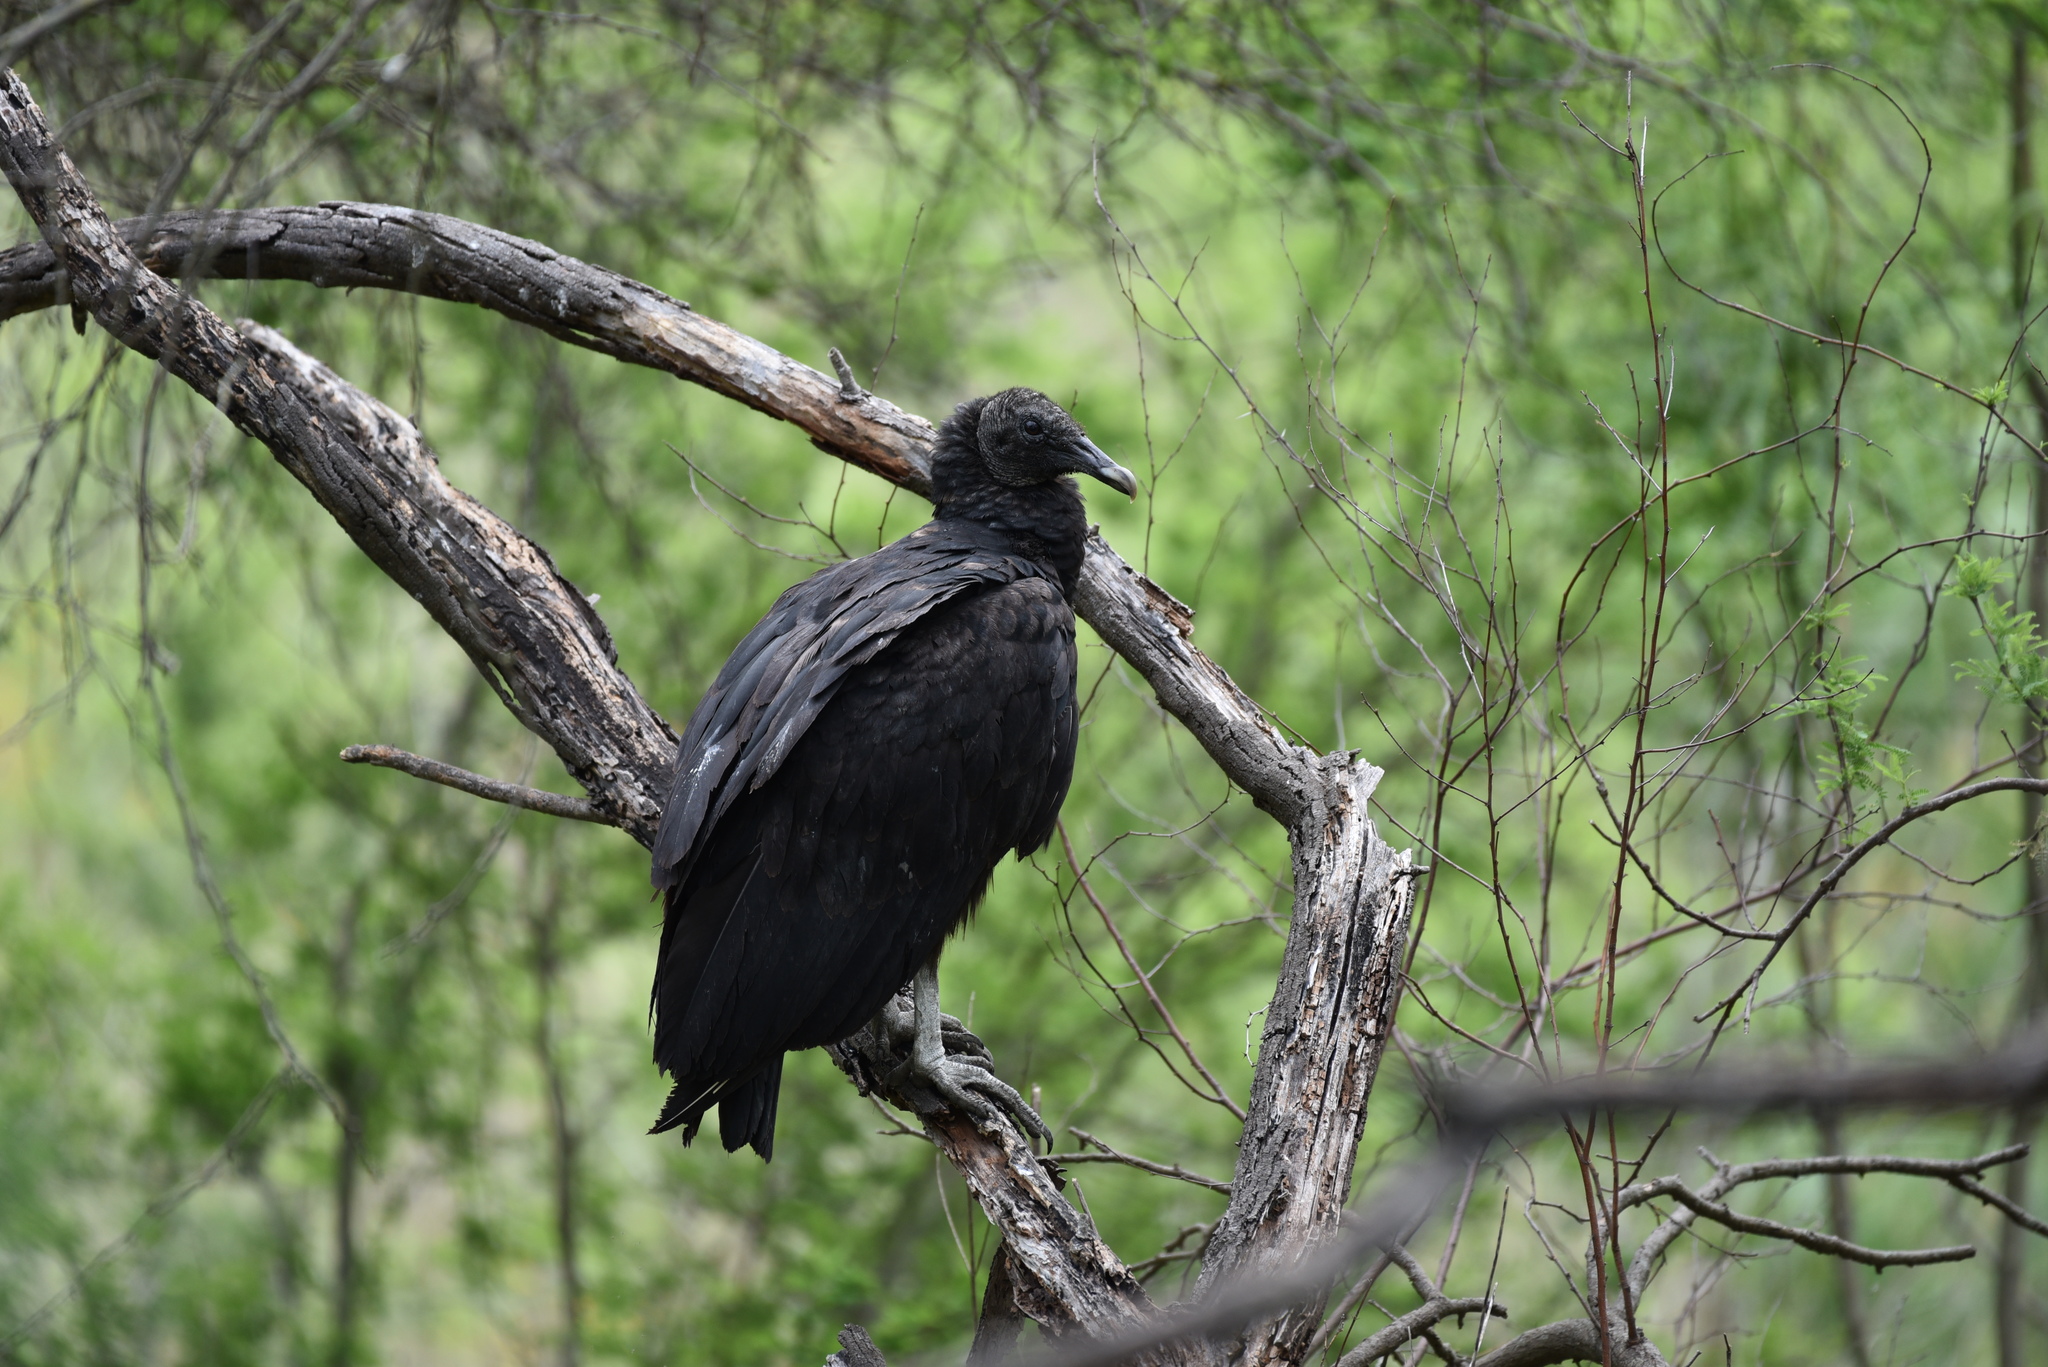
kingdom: Animalia
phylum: Chordata
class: Aves
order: Accipitriformes
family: Cathartidae
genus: Coragyps
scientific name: Coragyps atratus
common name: Black vulture
